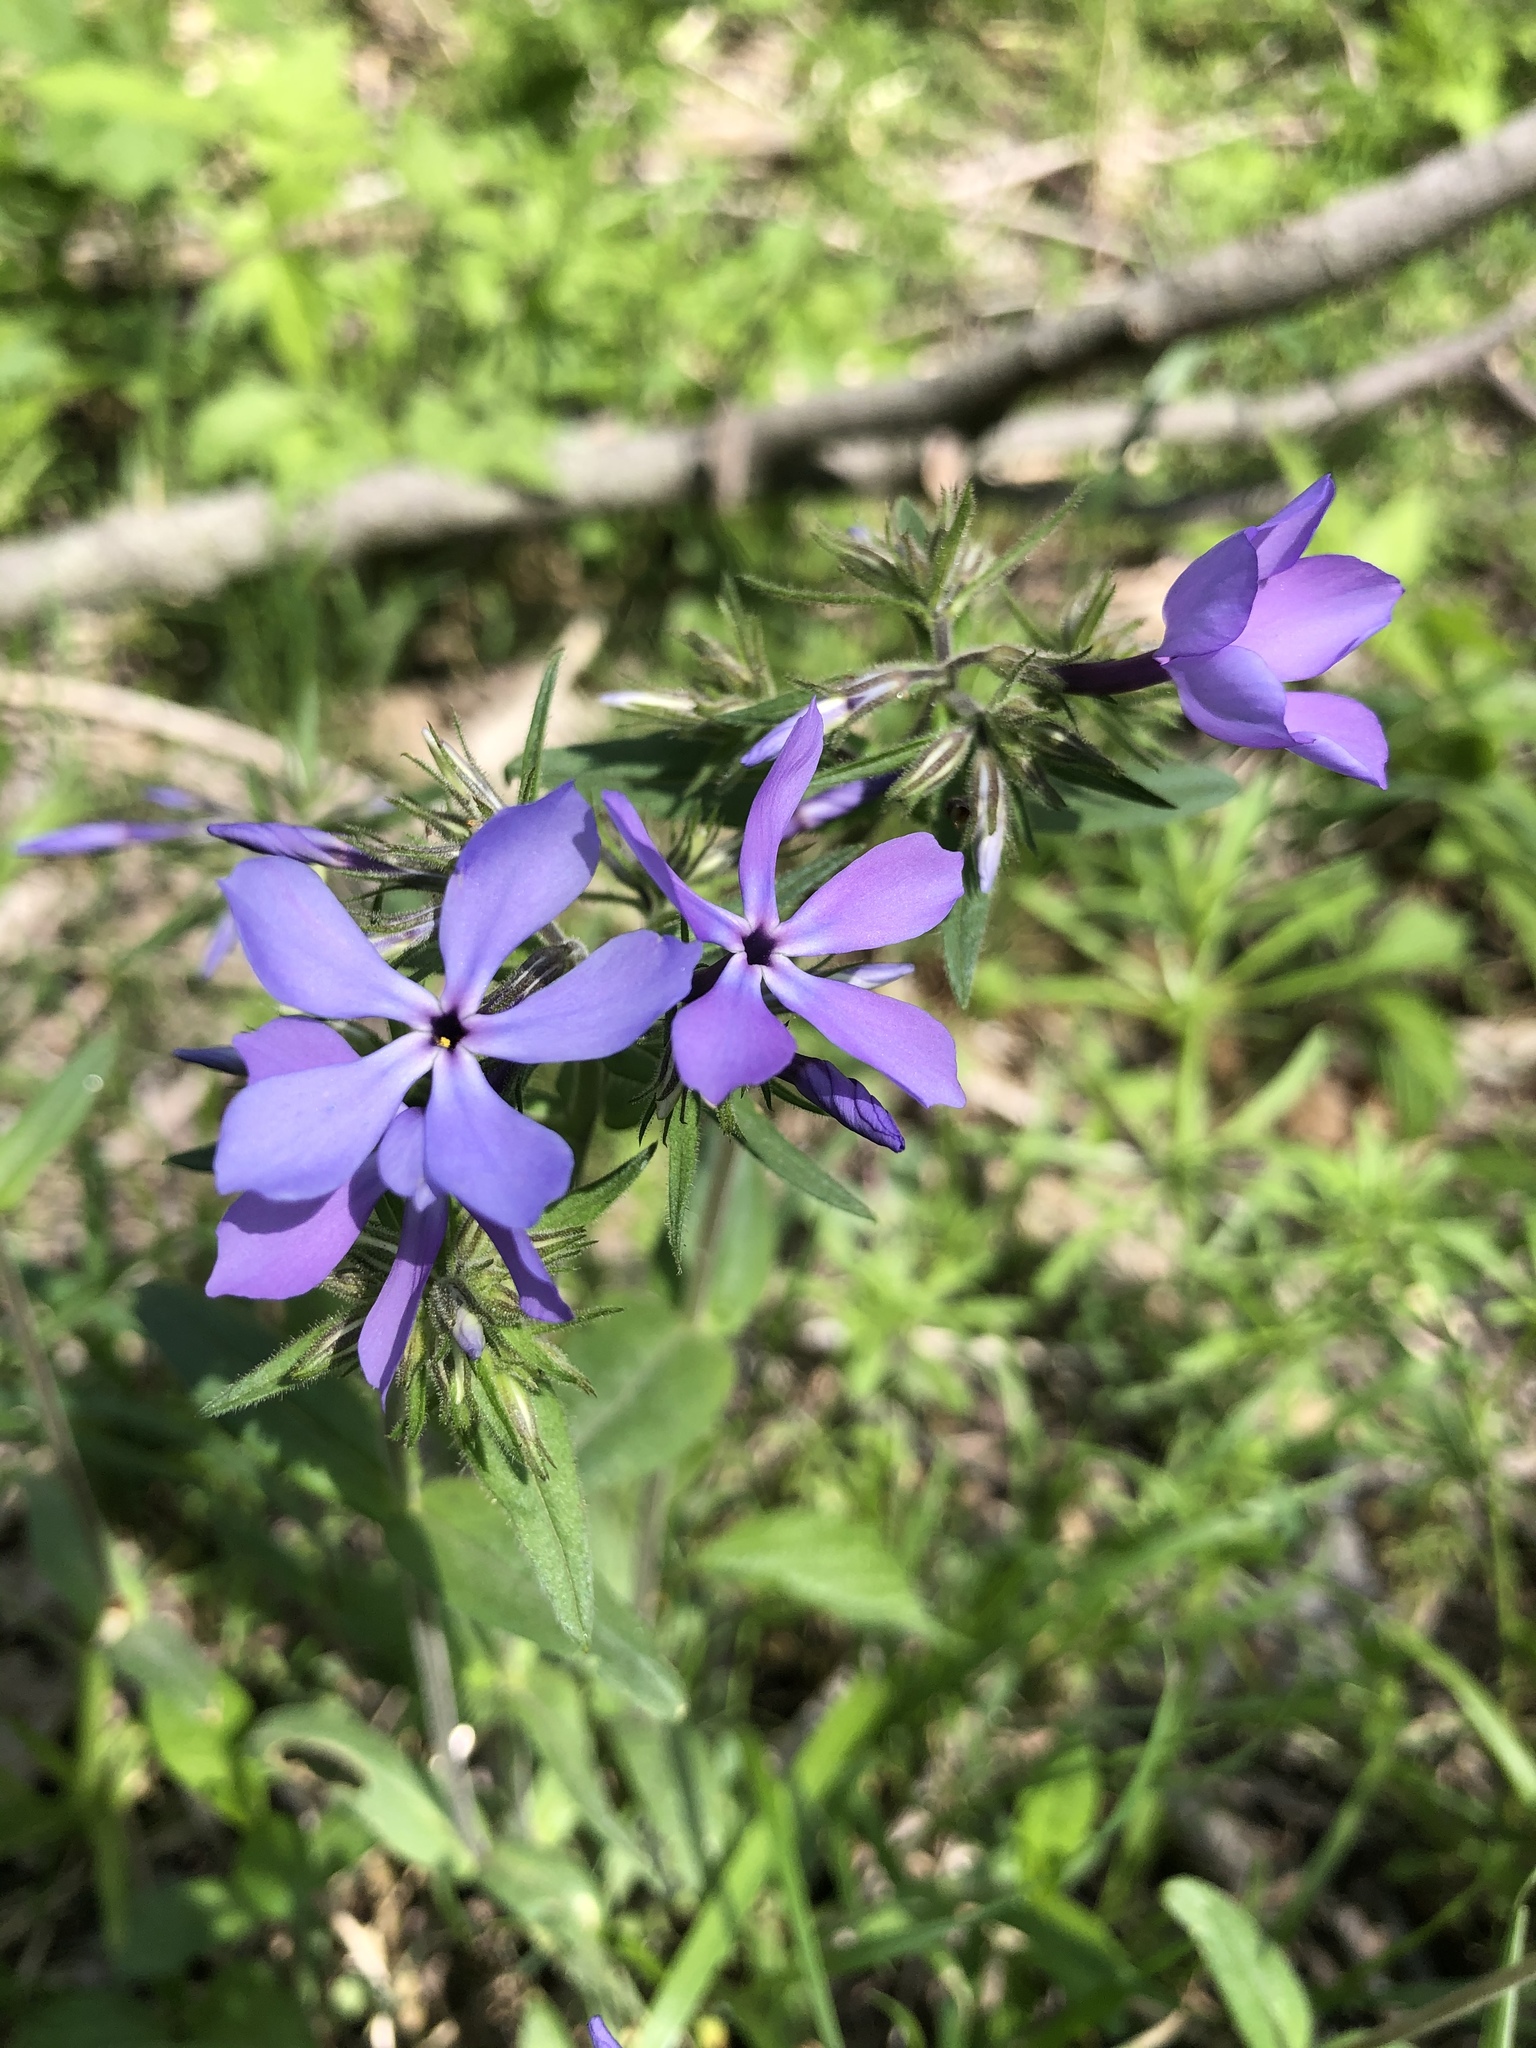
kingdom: Plantae
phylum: Tracheophyta
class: Magnoliopsida
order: Ericales
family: Polemoniaceae
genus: Phlox
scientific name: Phlox divaricata
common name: Blue phlox
